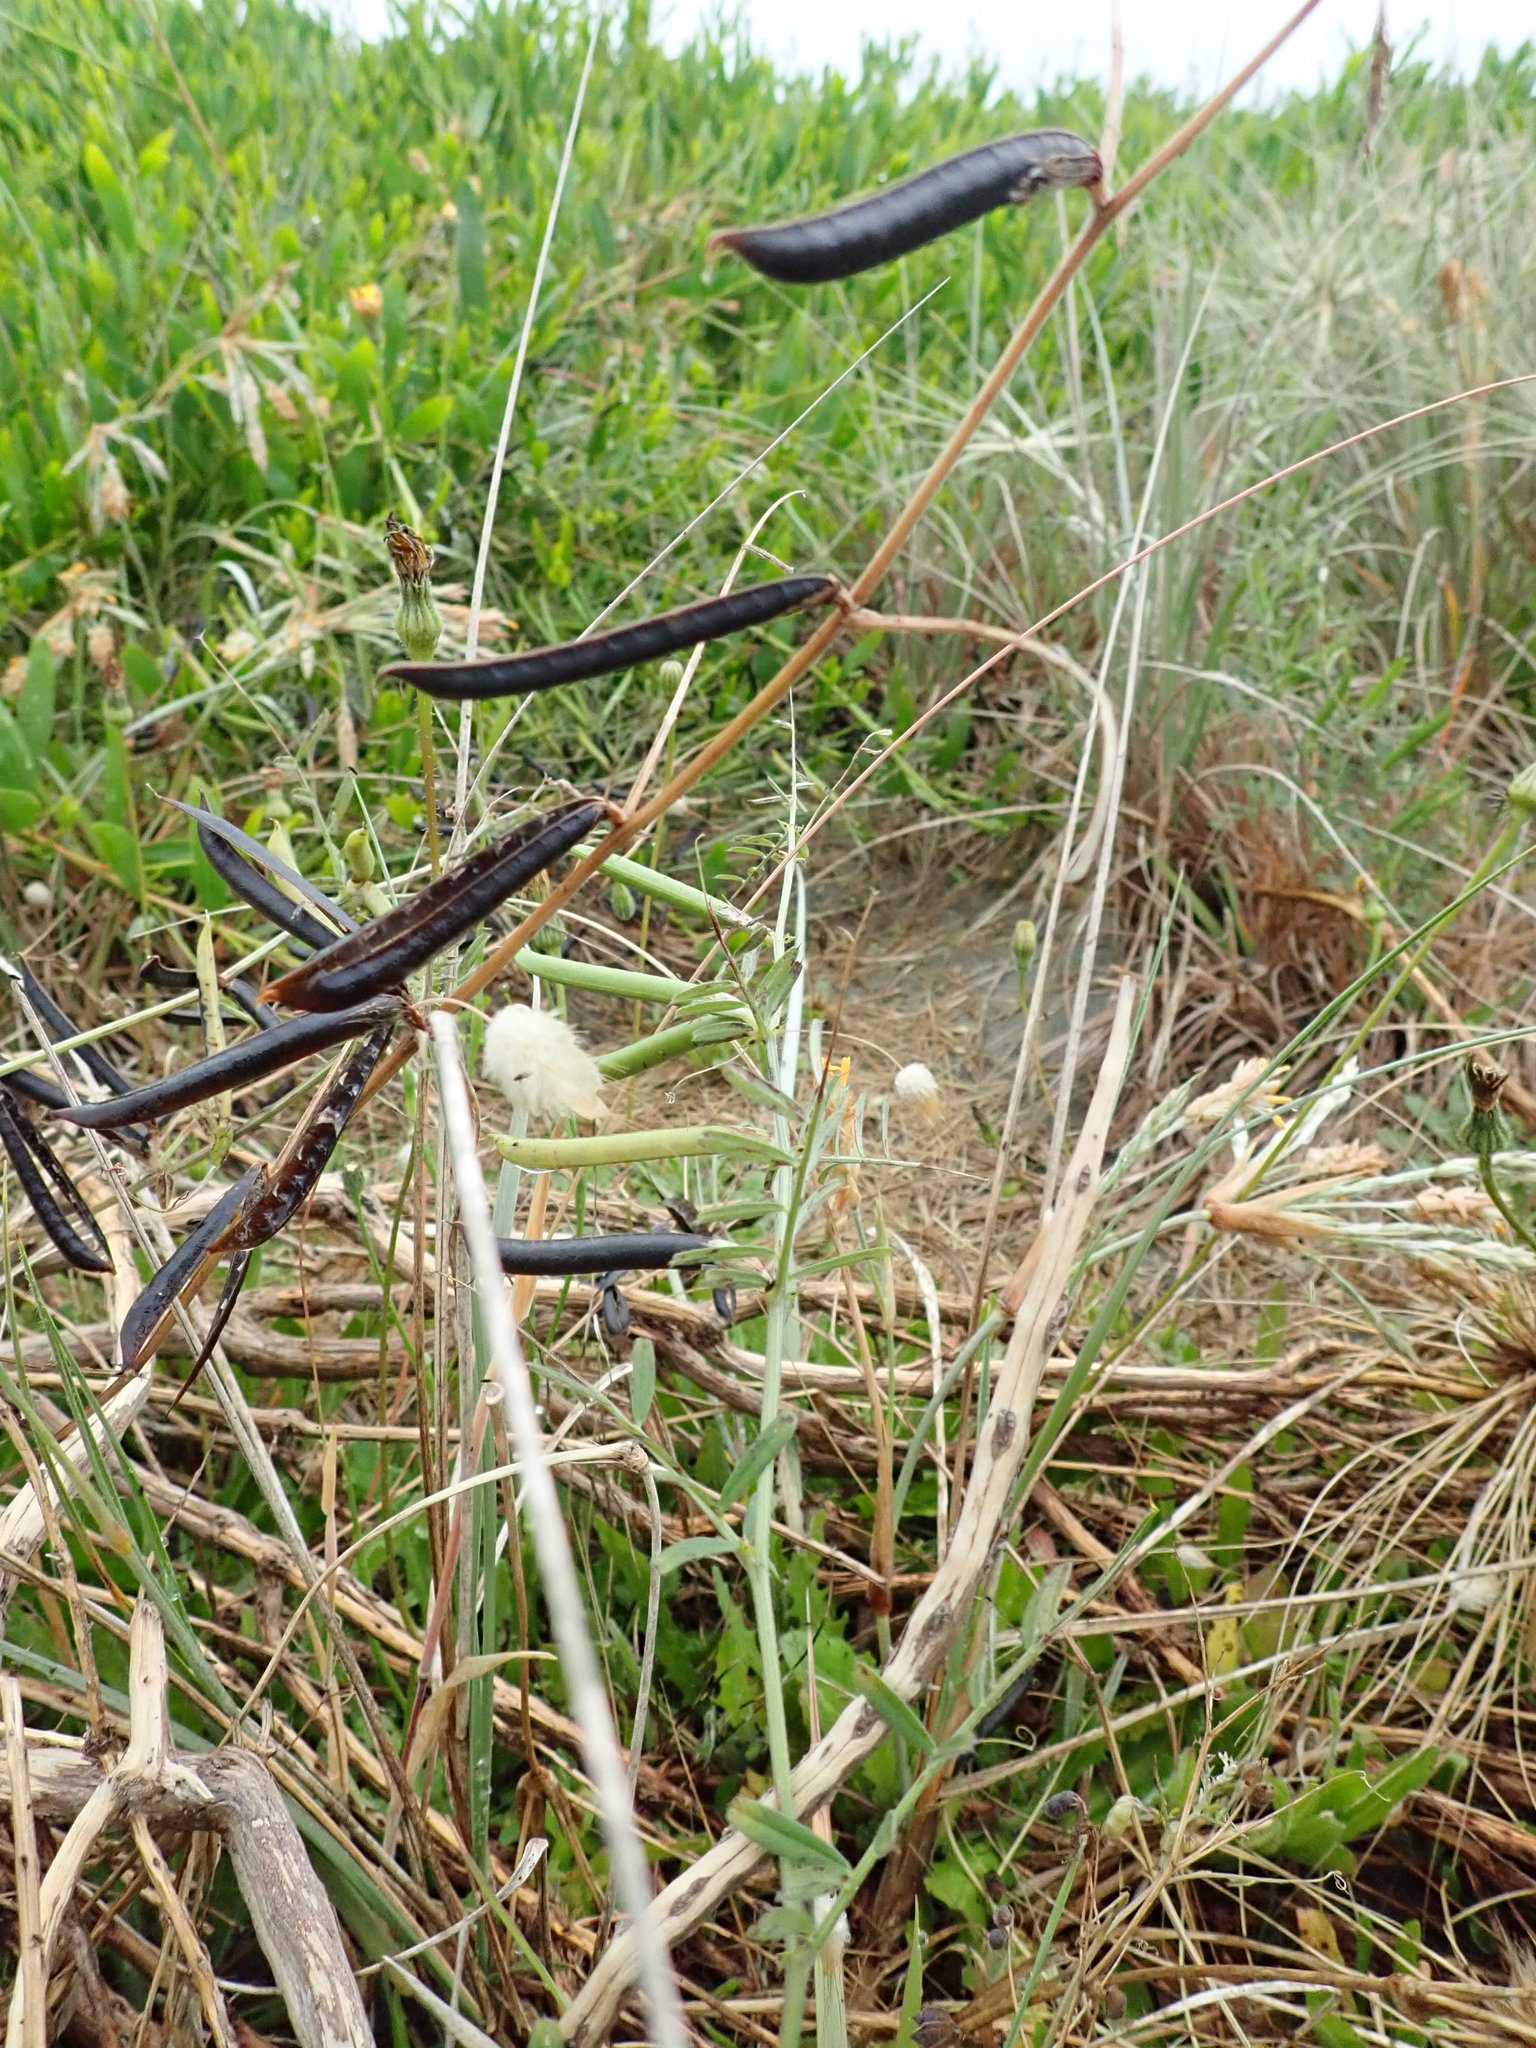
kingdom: Plantae
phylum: Tracheophyta
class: Magnoliopsida
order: Fabales
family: Fabaceae
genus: Vicia
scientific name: Vicia sativa
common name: Garden vetch
